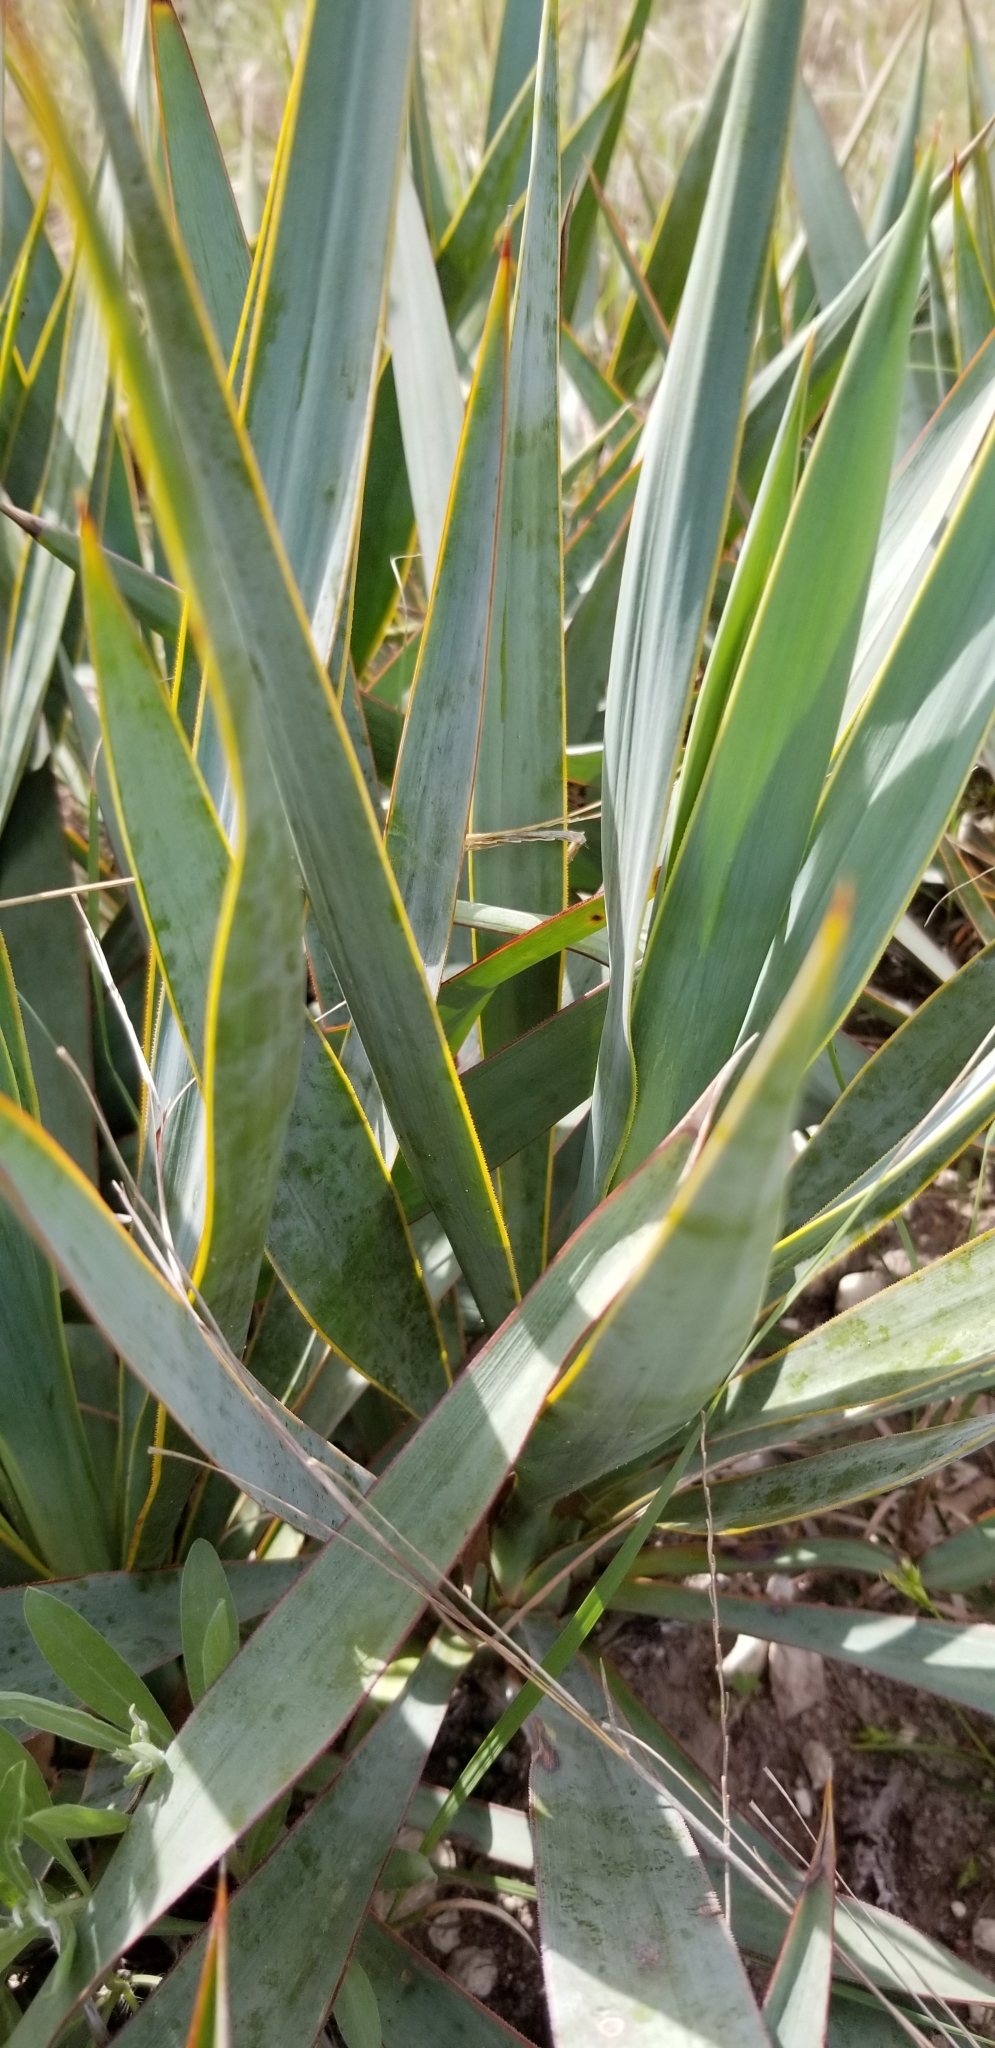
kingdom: Plantae
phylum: Tracheophyta
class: Liliopsida
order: Asparagales
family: Asparagaceae
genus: Yucca
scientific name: Yucca pallida
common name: Pale leaf yucca
